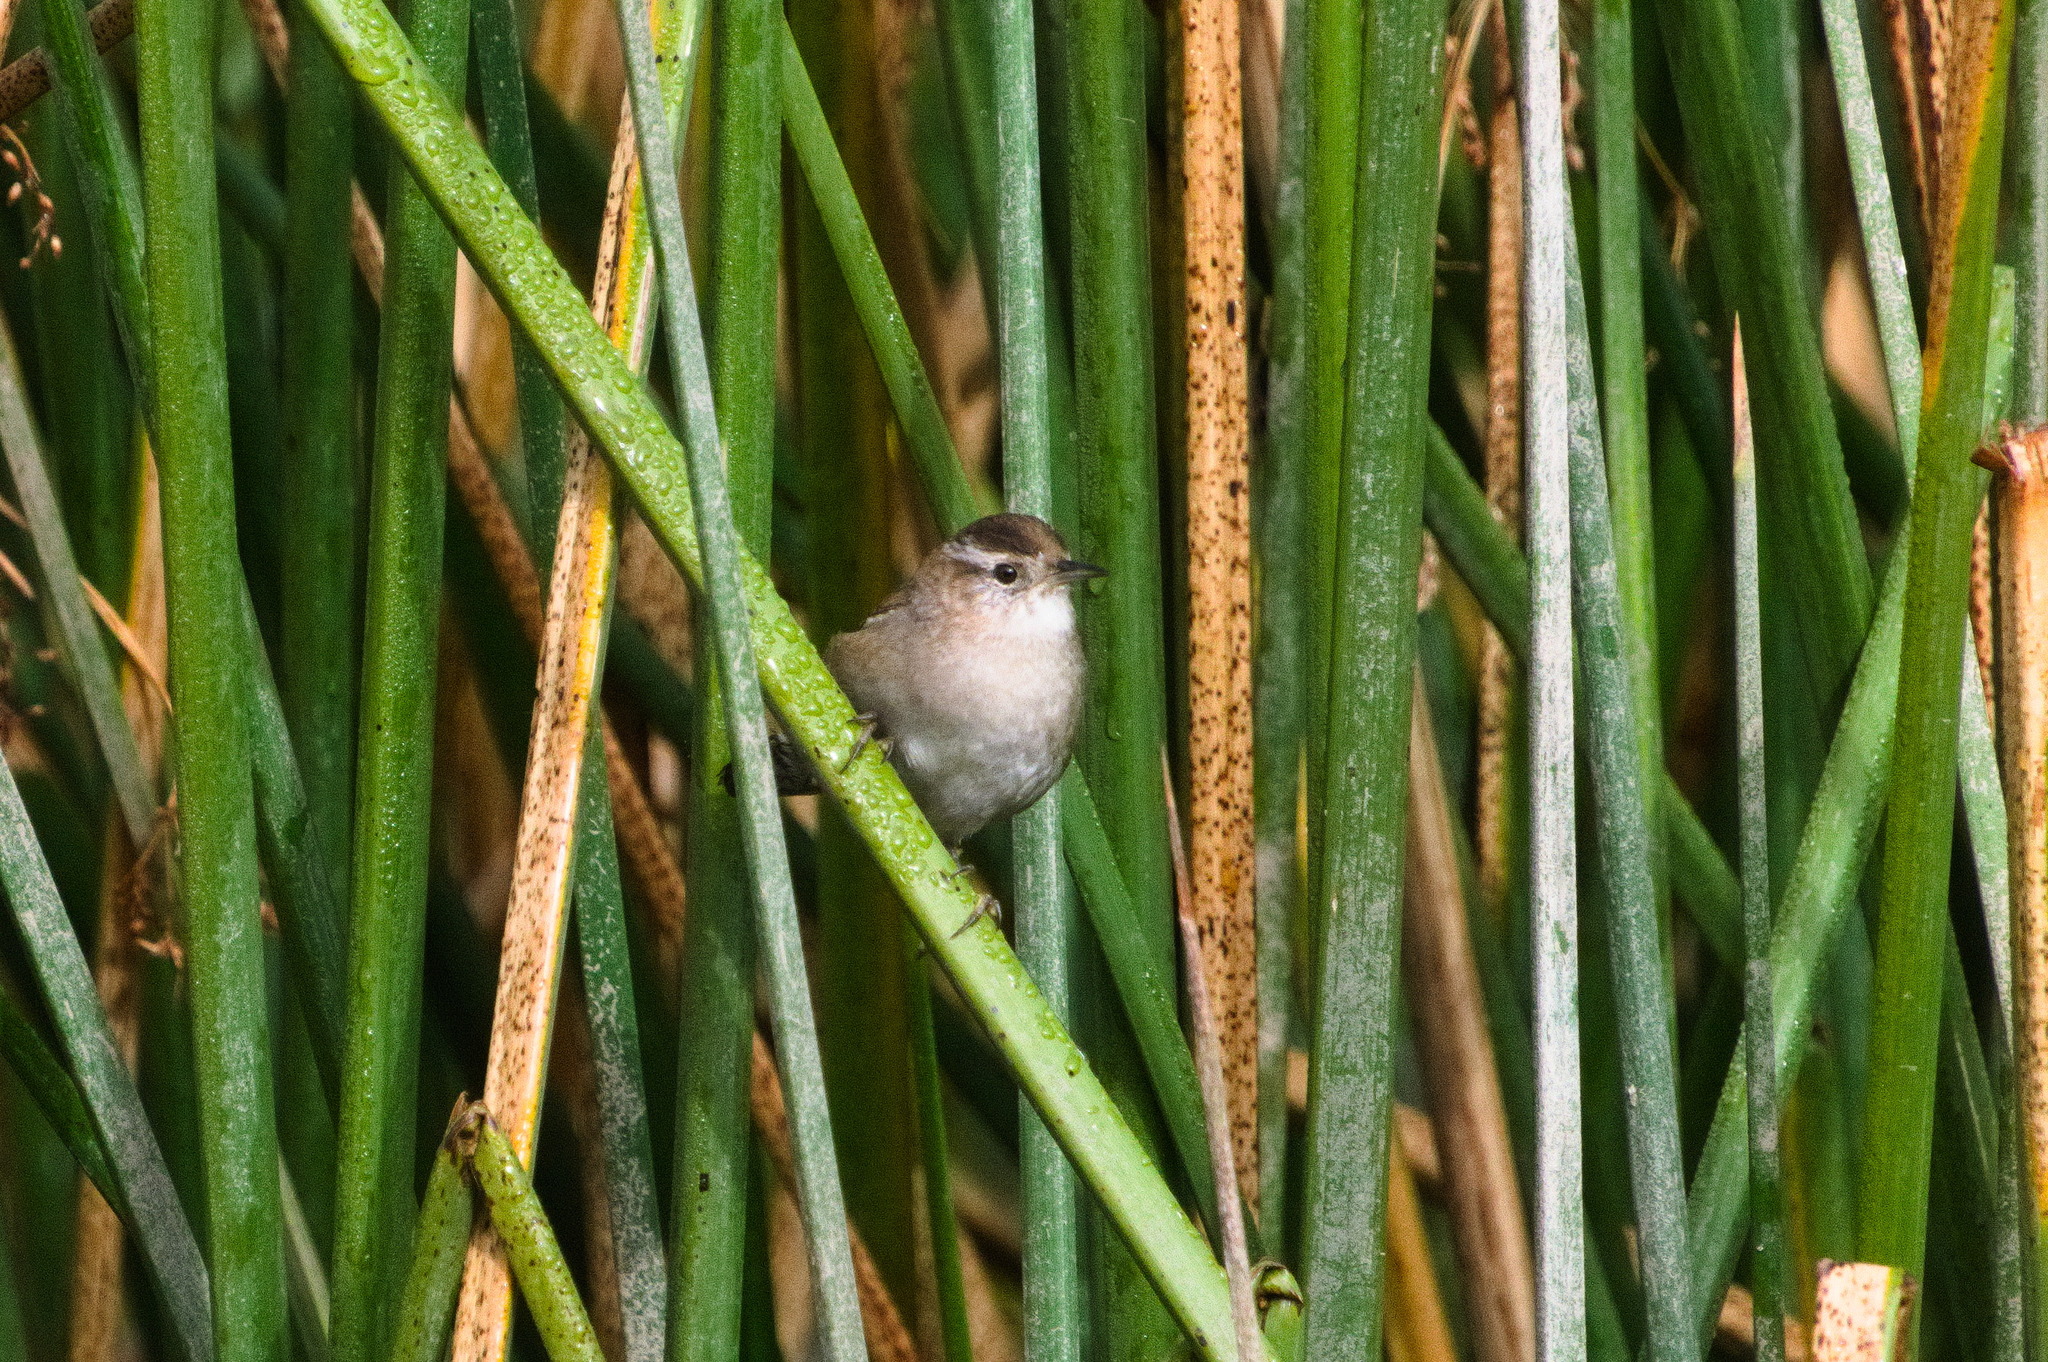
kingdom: Animalia
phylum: Chordata
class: Aves
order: Passeriformes
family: Troglodytidae
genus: Cistothorus
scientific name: Cistothorus palustris
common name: Marsh wren
